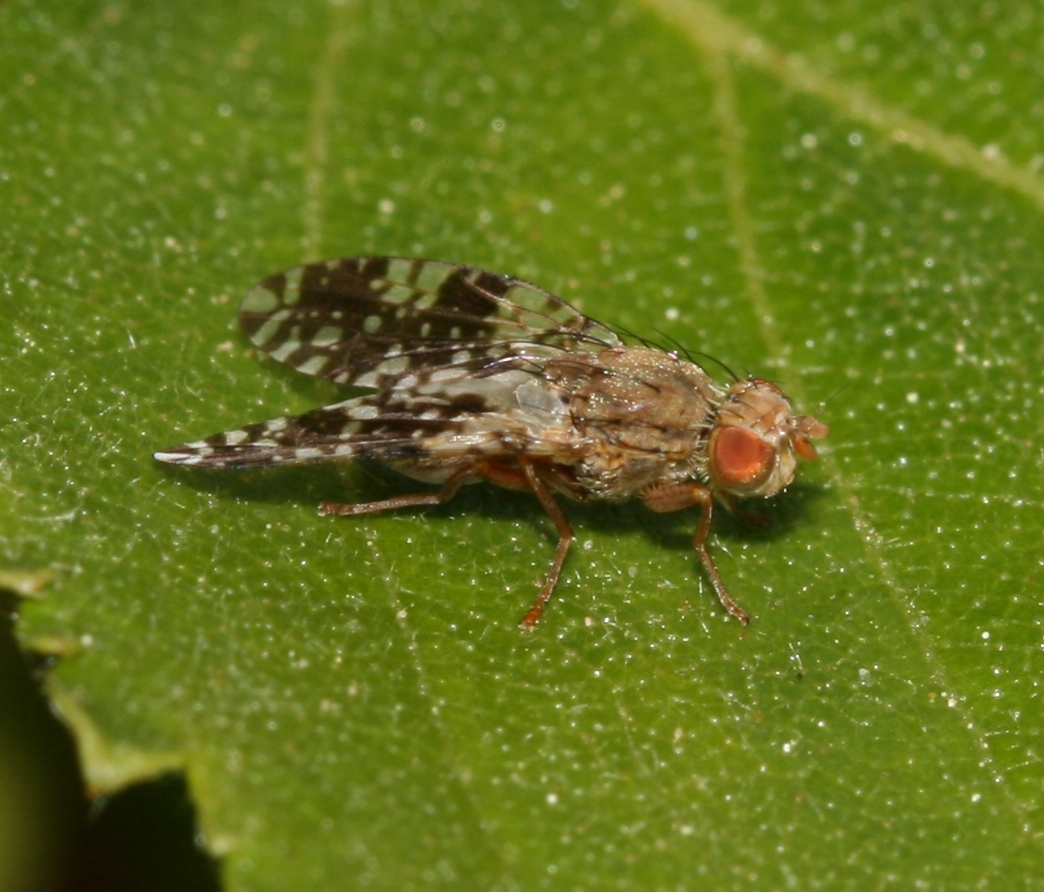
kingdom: Animalia
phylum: Arthropoda
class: Insecta
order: Diptera
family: Tephritidae
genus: Tephritis
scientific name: Tephritis conura
